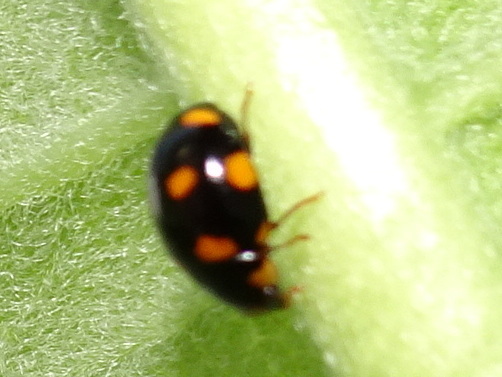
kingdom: Animalia
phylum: Arthropoda
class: Insecta
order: Coleoptera
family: Coccinellidae
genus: Brachiacantha
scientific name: Brachiacantha ursina
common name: Ursine spurleg lady beetle
